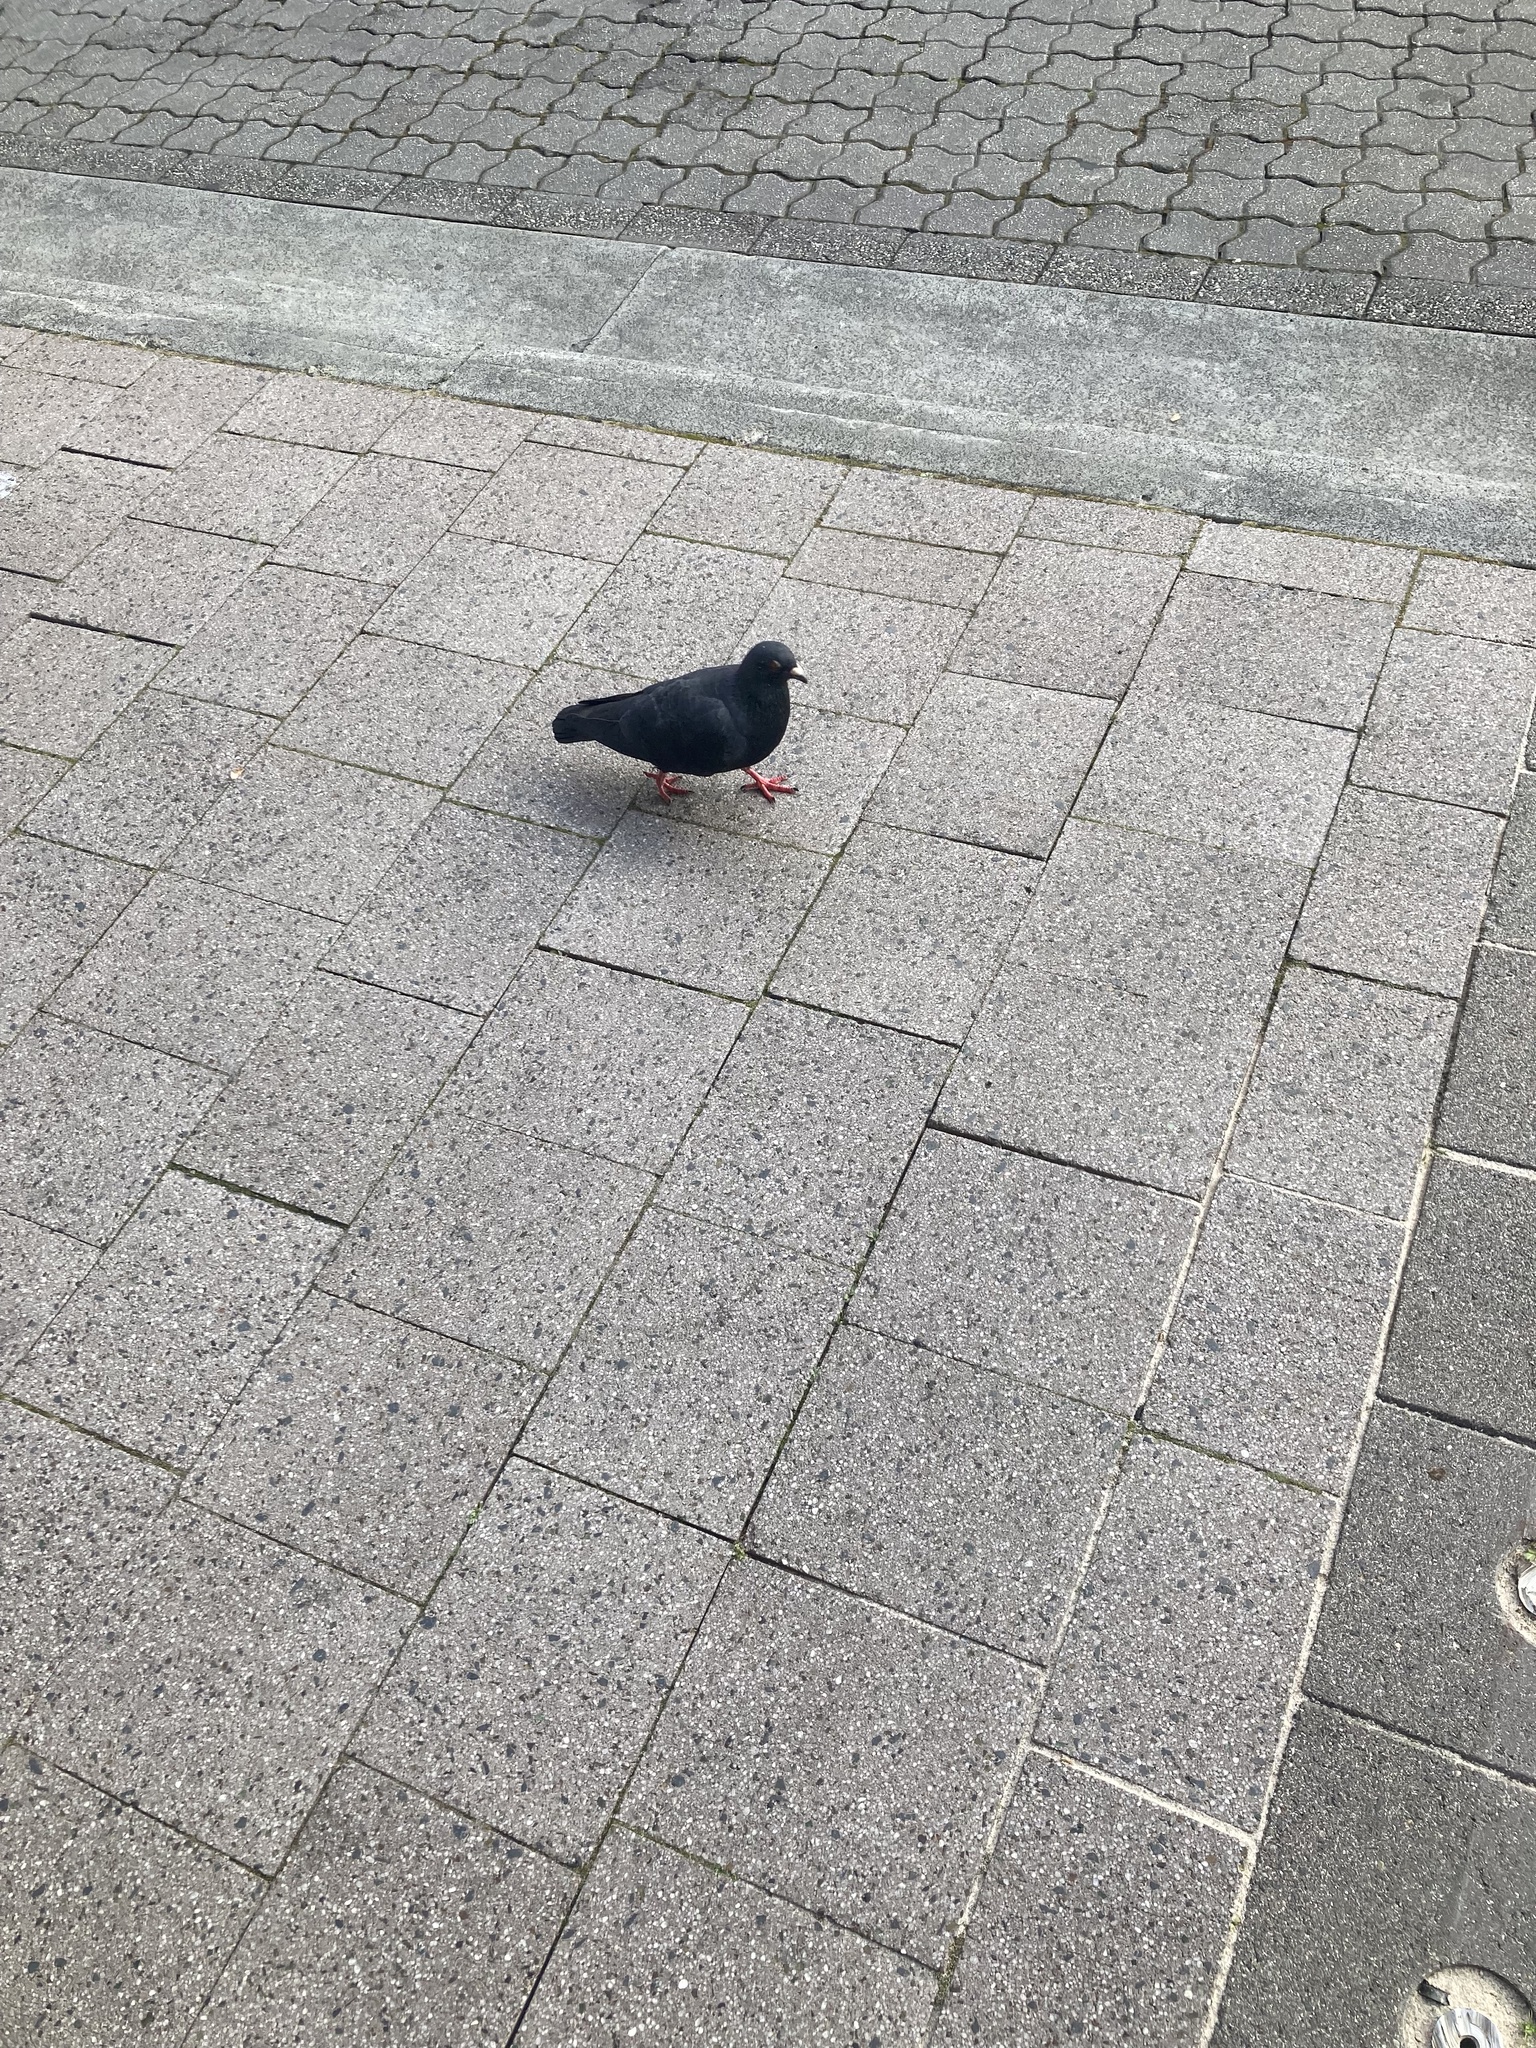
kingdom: Animalia
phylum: Chordata
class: Aves
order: Columbiformes
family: Columbidae
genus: Columba
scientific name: Columba livia
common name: Rock pigeon
